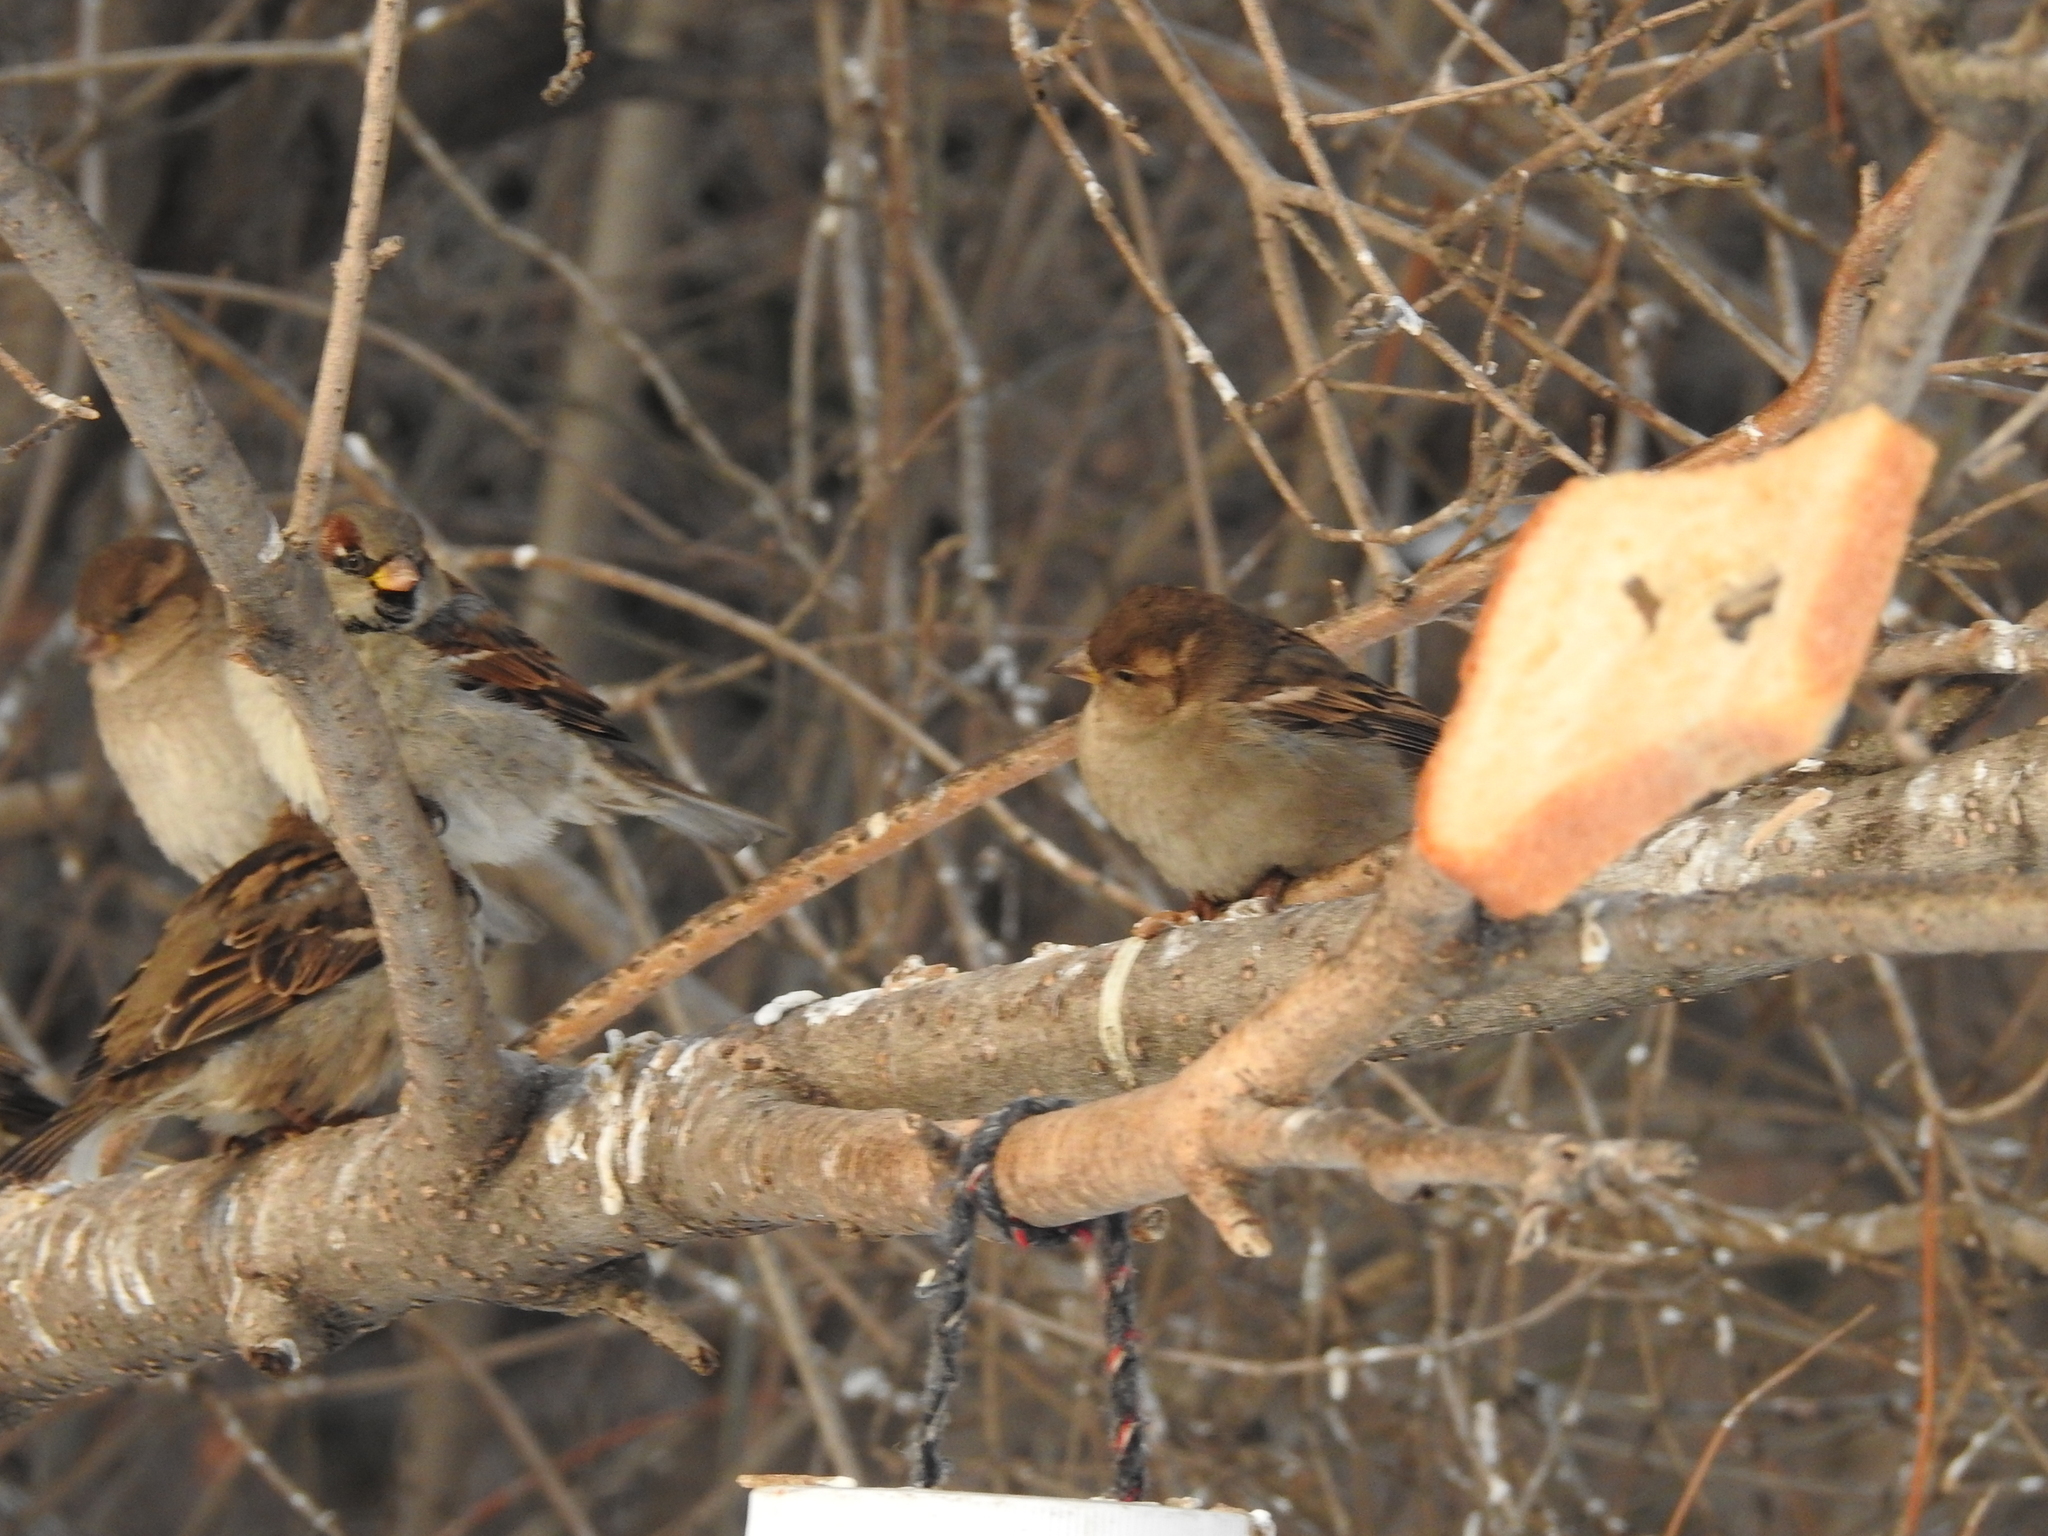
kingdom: Animalia
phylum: Chordata
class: Aves
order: Passeriformes
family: Passeridae
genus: Passer
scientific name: Passer domesticus
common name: House sparrow
